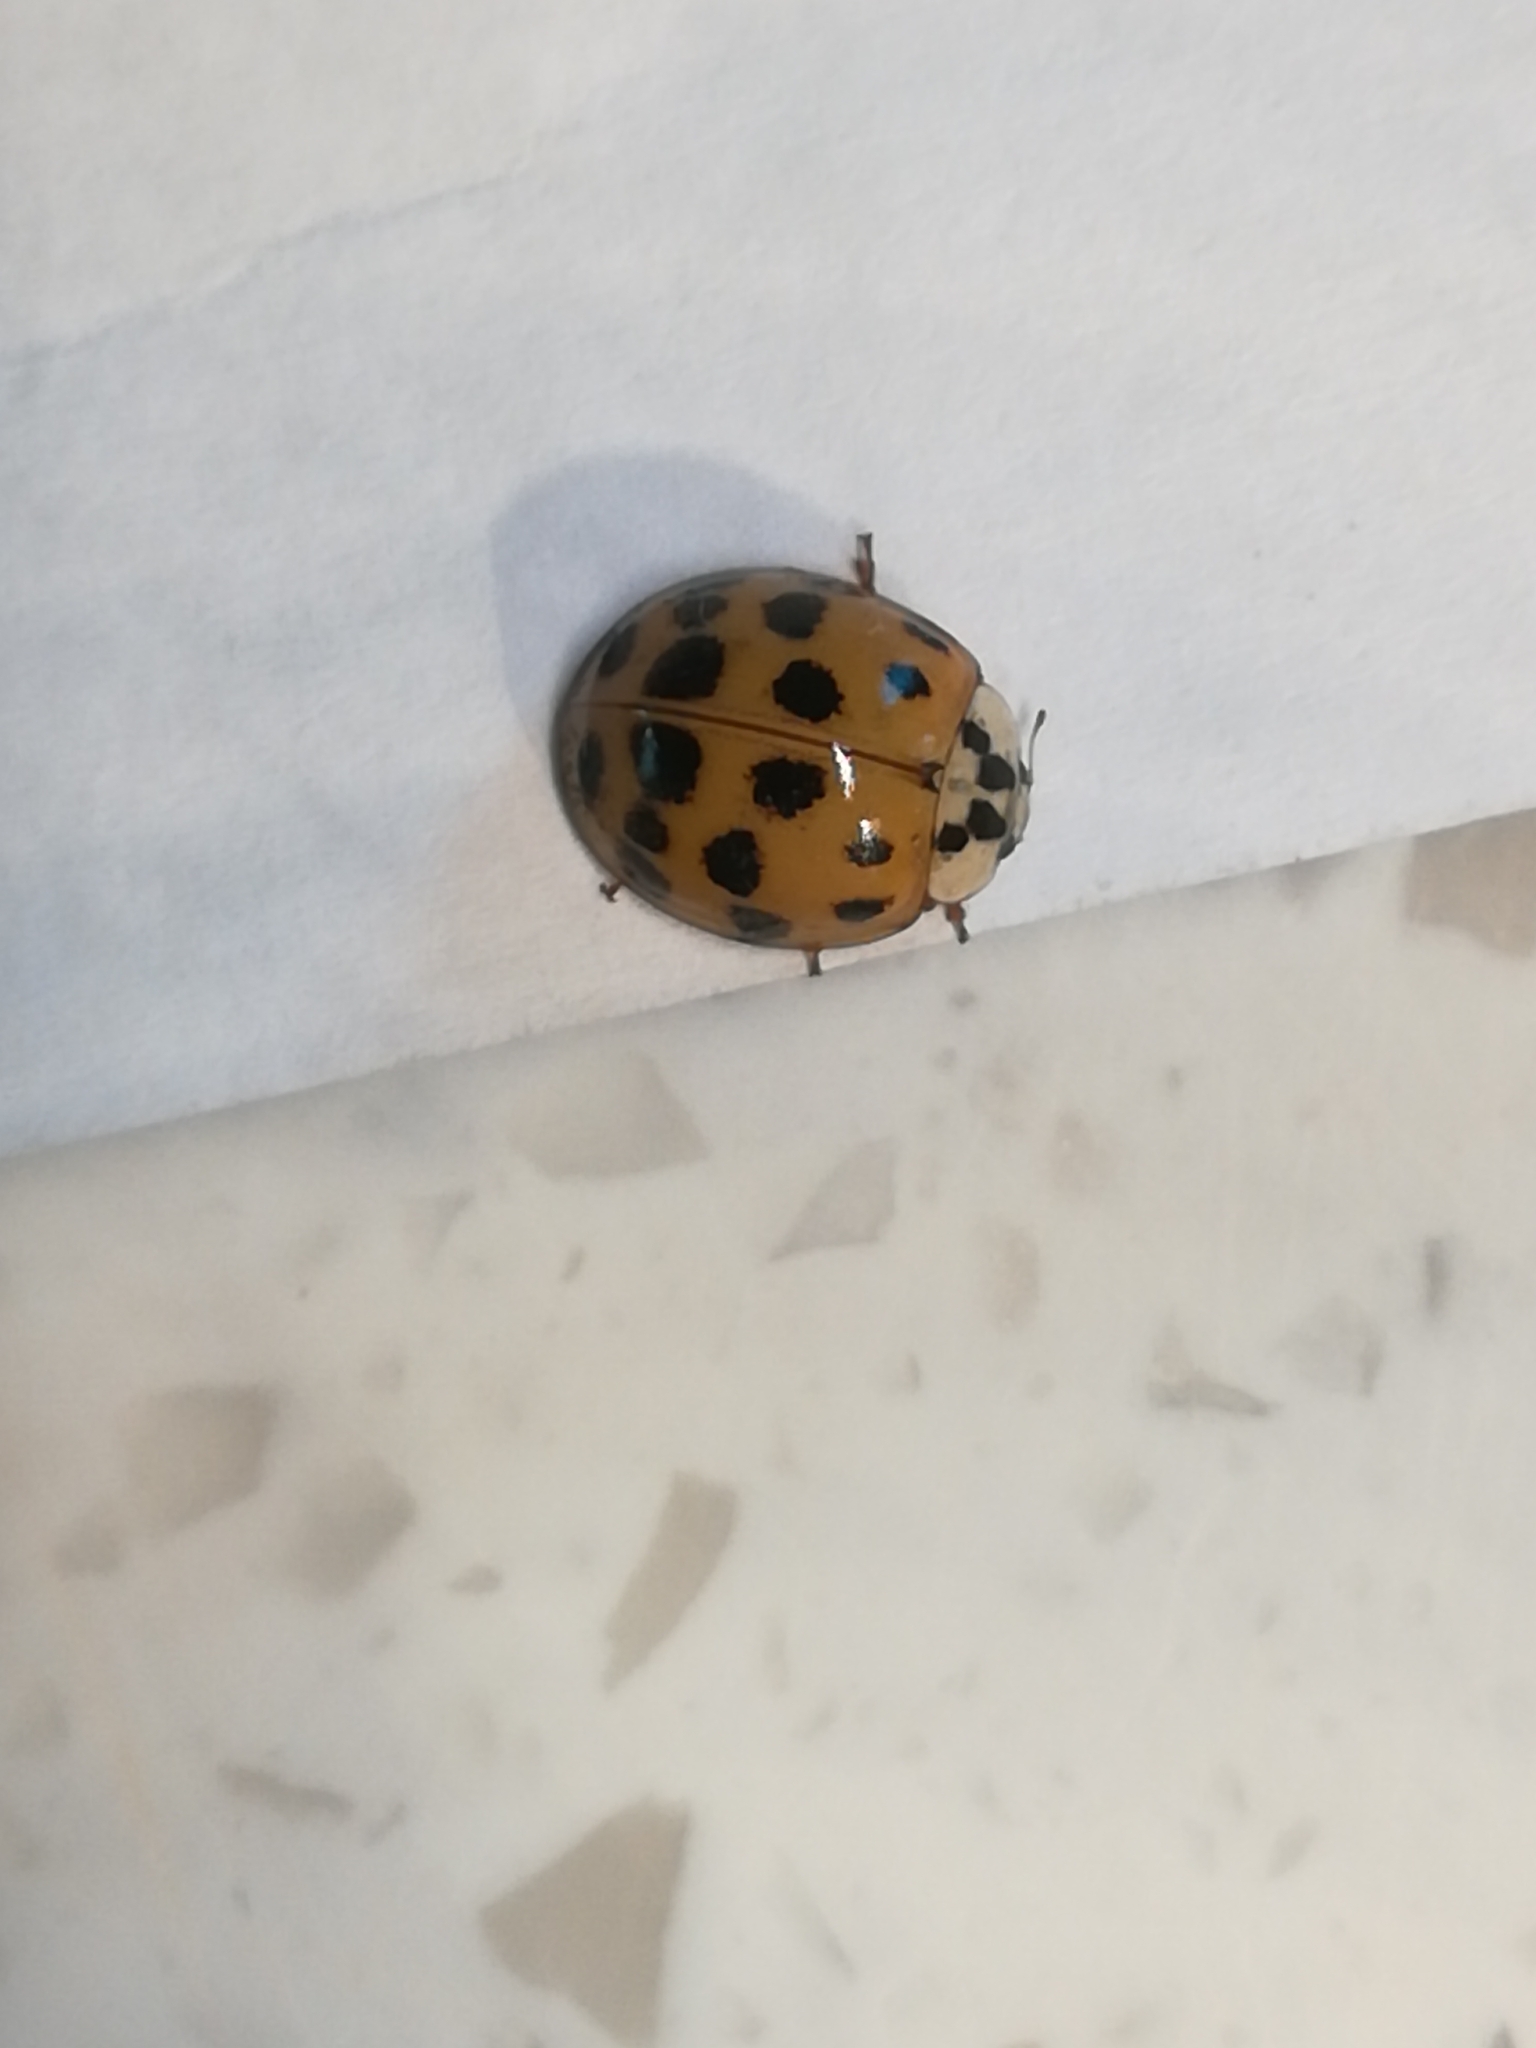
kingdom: Animalia
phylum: Arthropoda
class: Insecta
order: Coleoptera
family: Coccinellidae
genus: Harmonia
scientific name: Harmonia axyridis
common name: Harlequin ladybird
